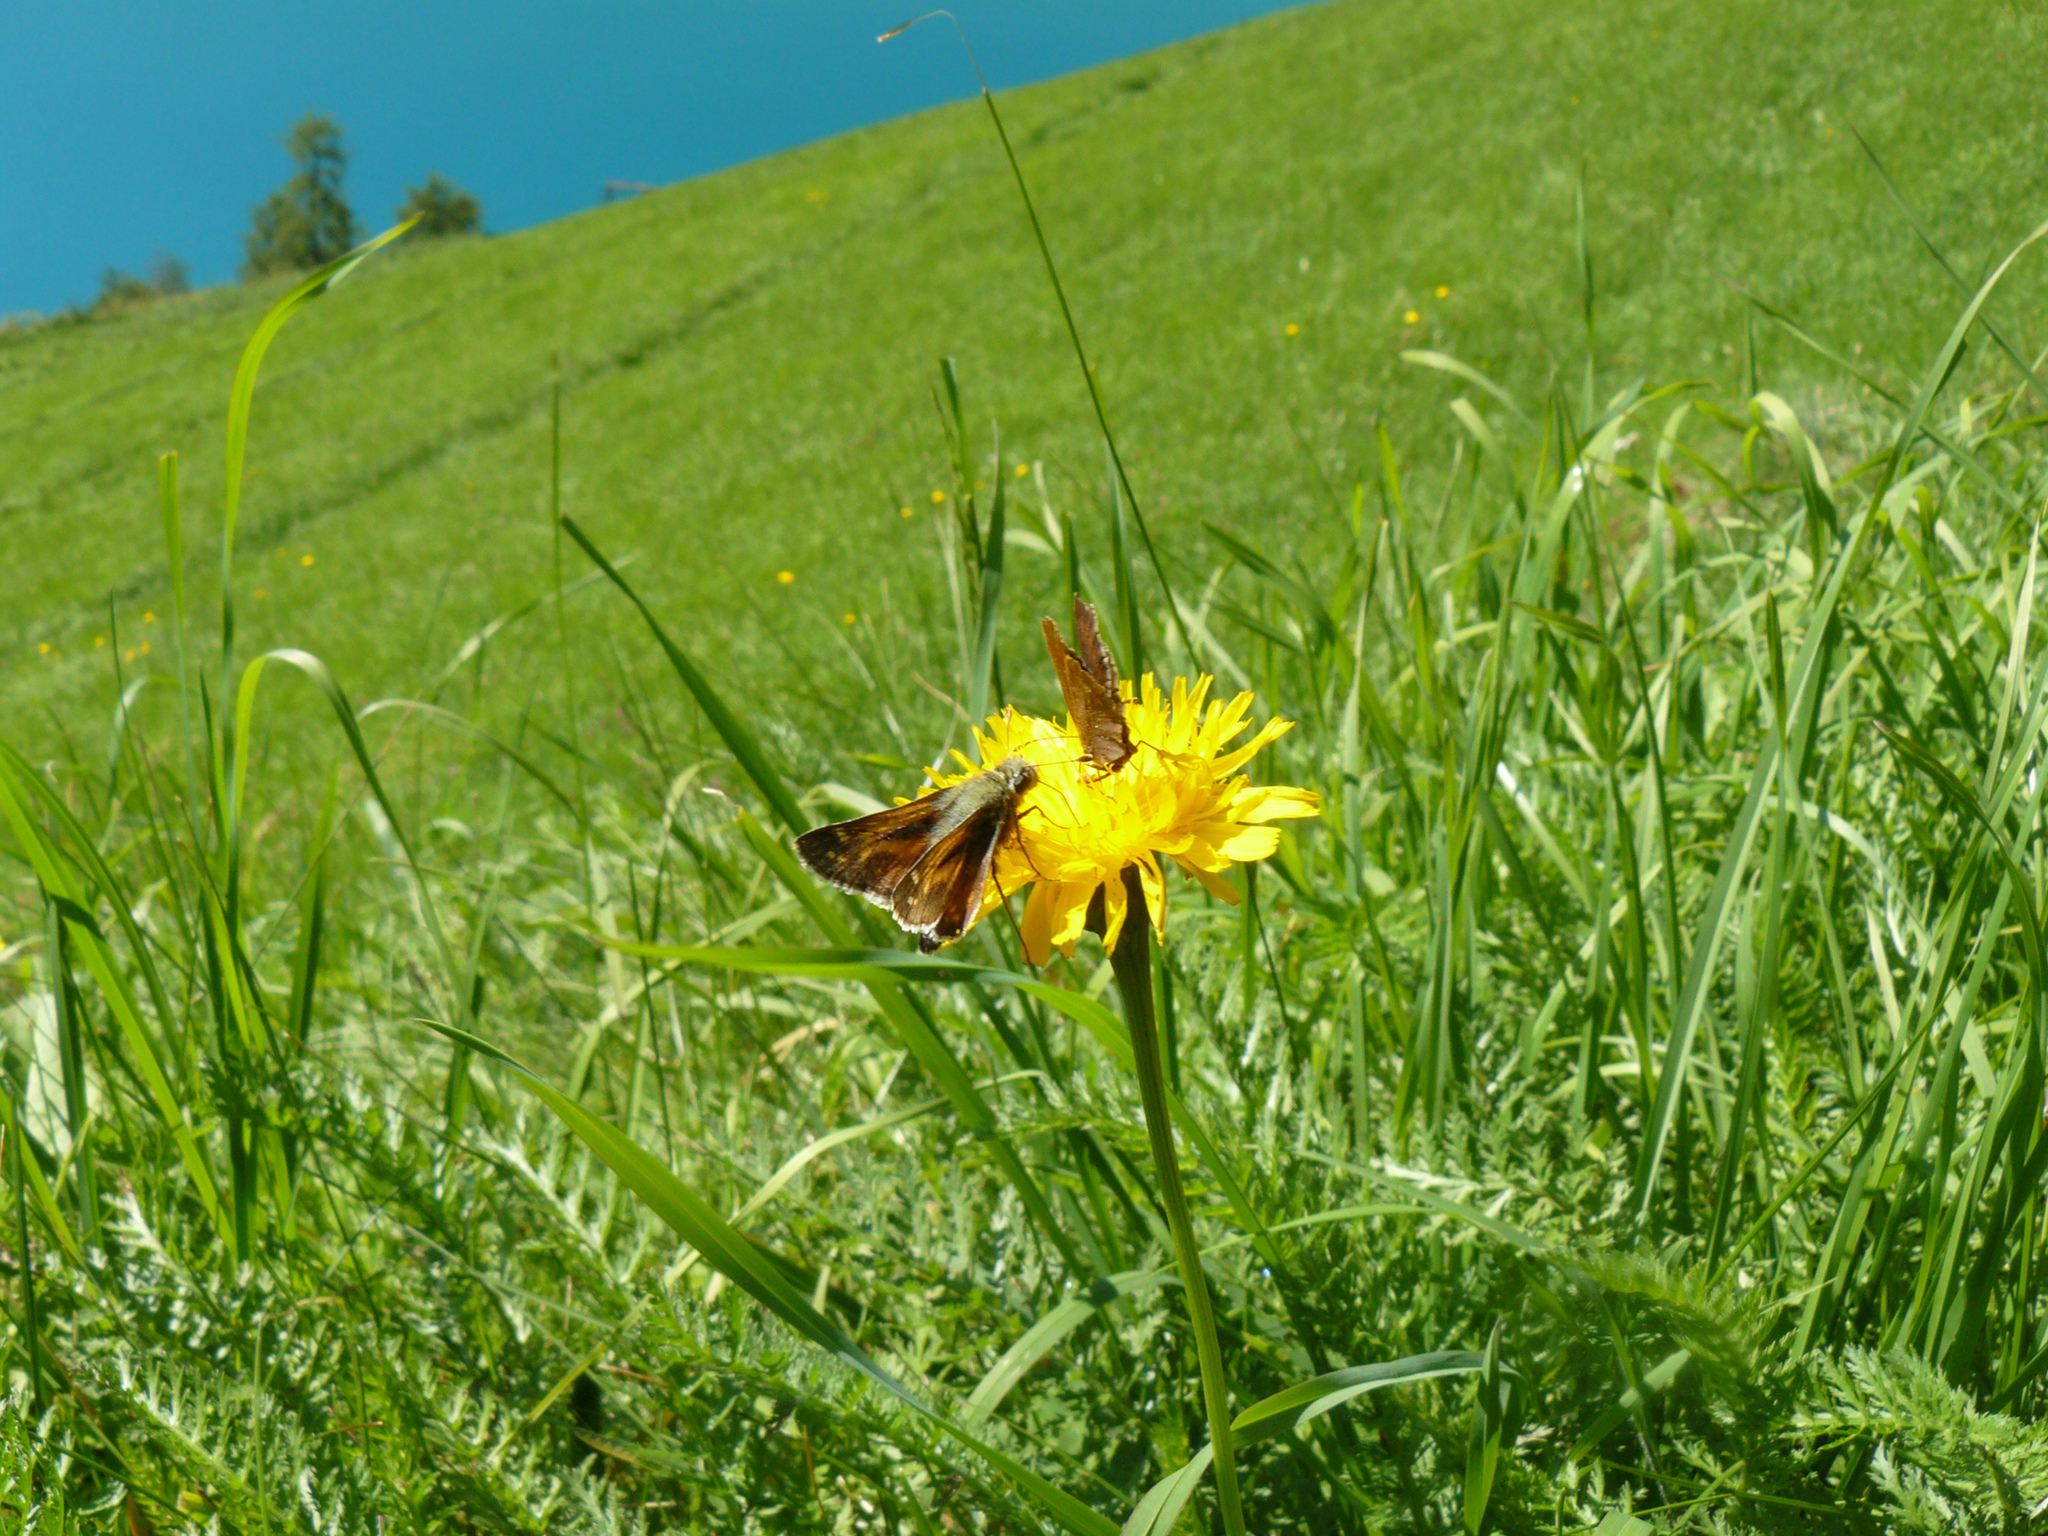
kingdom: Animalia
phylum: Arthropoda
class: Insecta
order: Lepidoptera
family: Hesperiidae
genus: Hesperia
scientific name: Hesperia comma
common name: Common branded skipper
